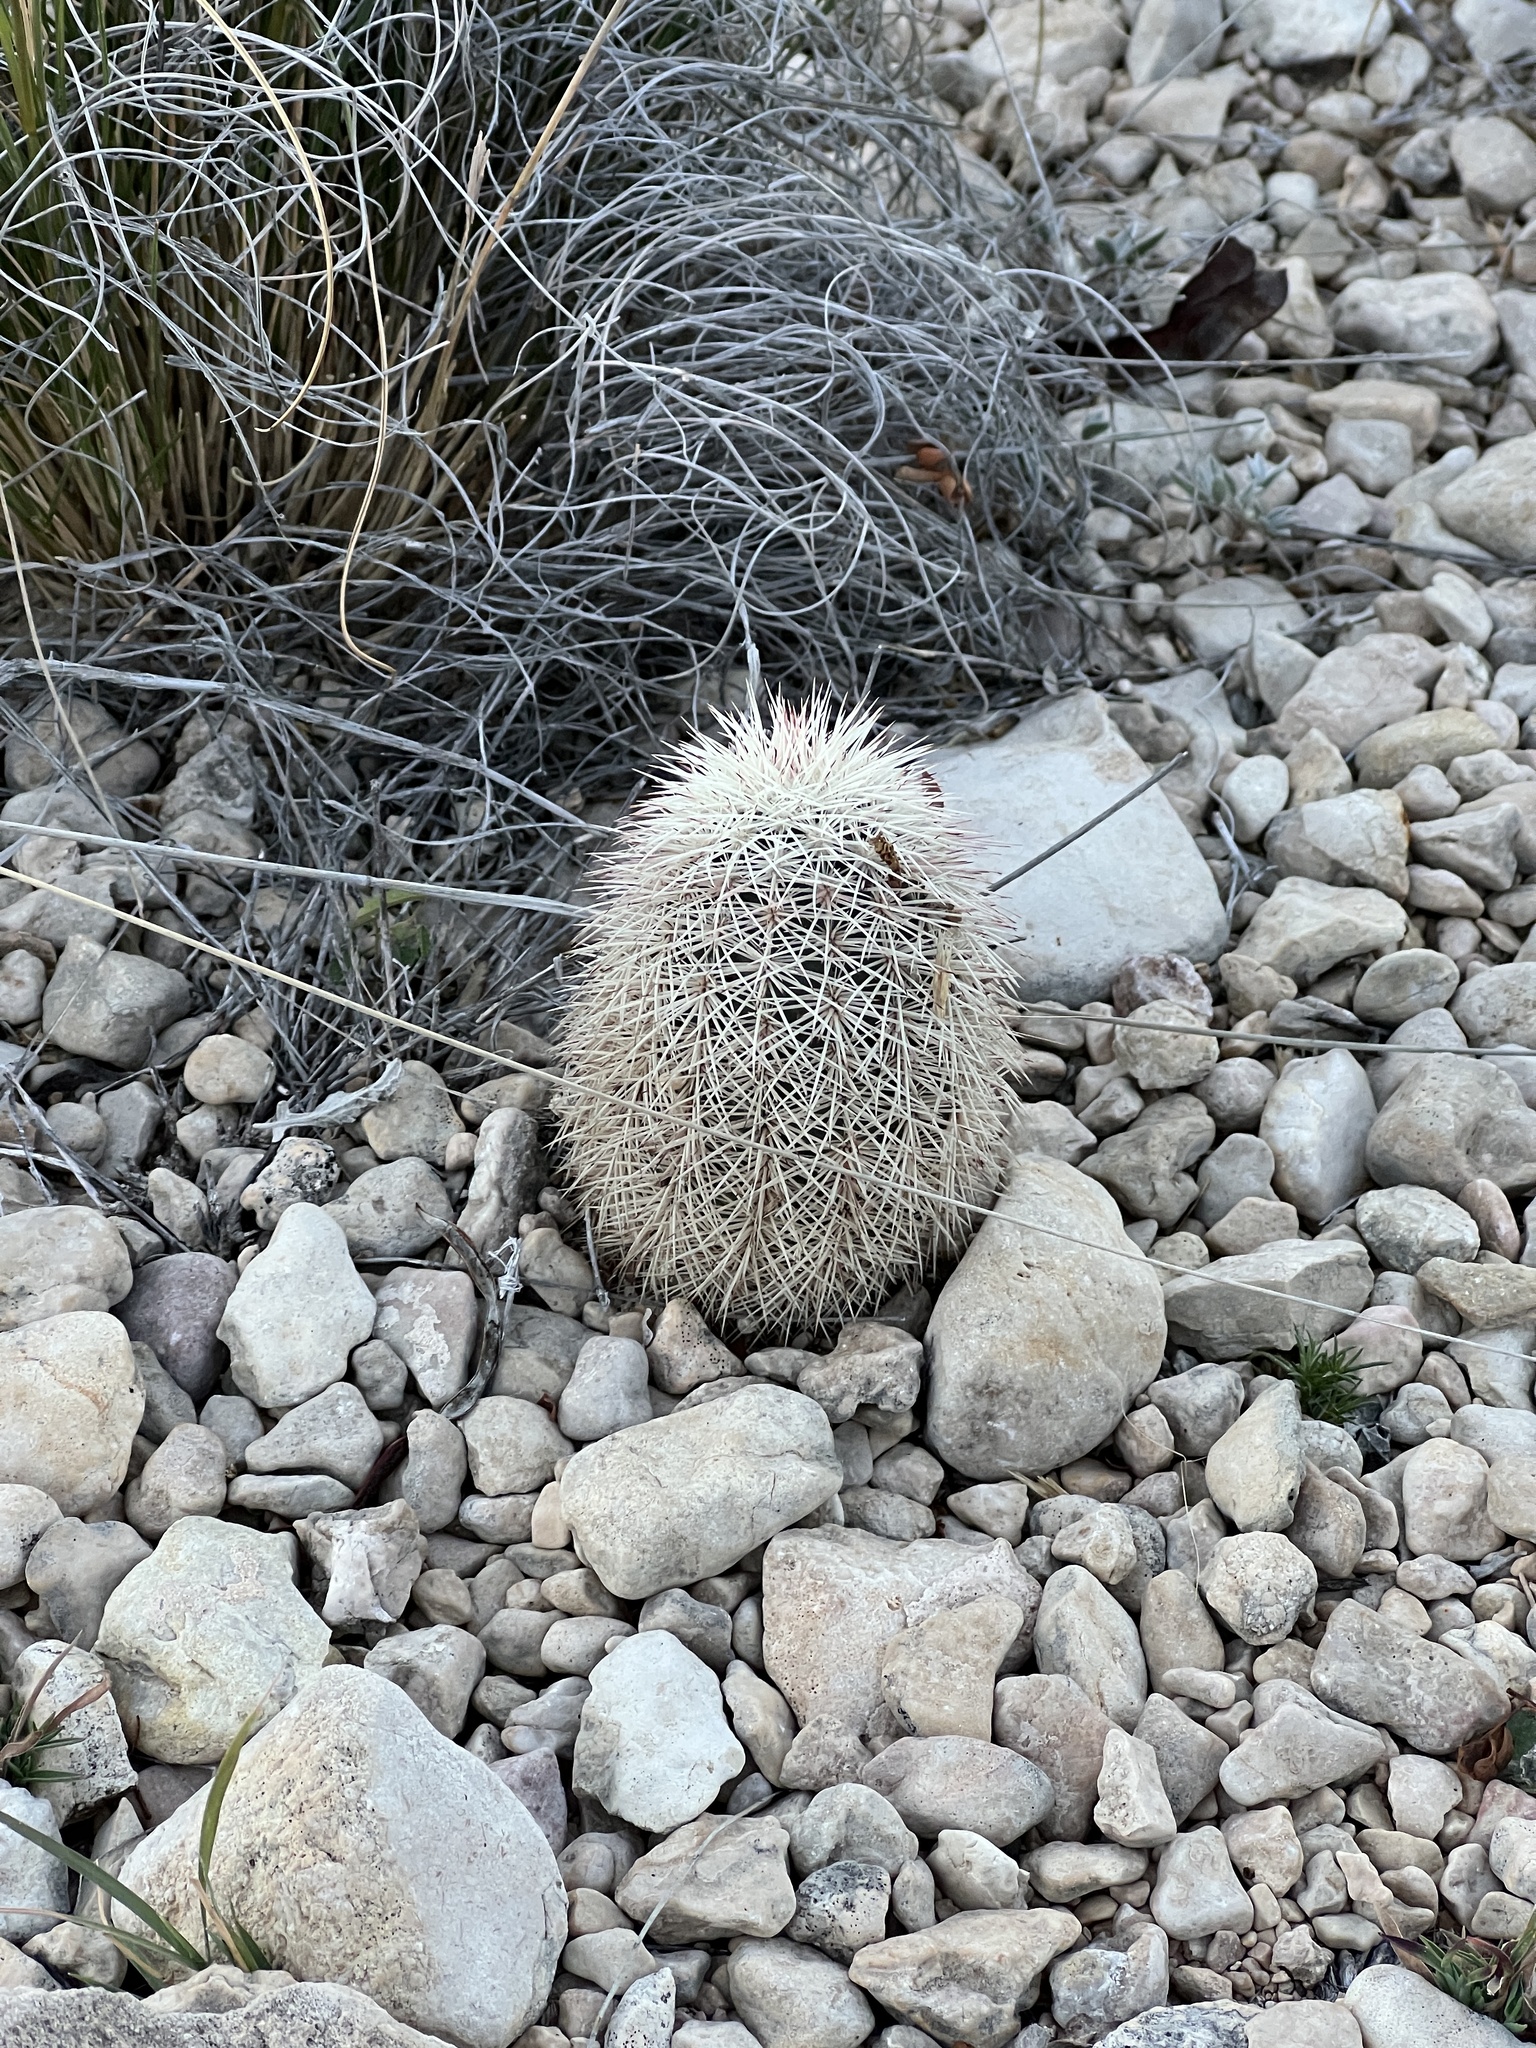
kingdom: Plantae
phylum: Tracheophyta
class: Magnoliopsida
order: Caryophyllales
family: Cactaceae
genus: Echinocereus
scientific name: Echinocereus dasyacanthus
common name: Spiny hedgehog cactus
